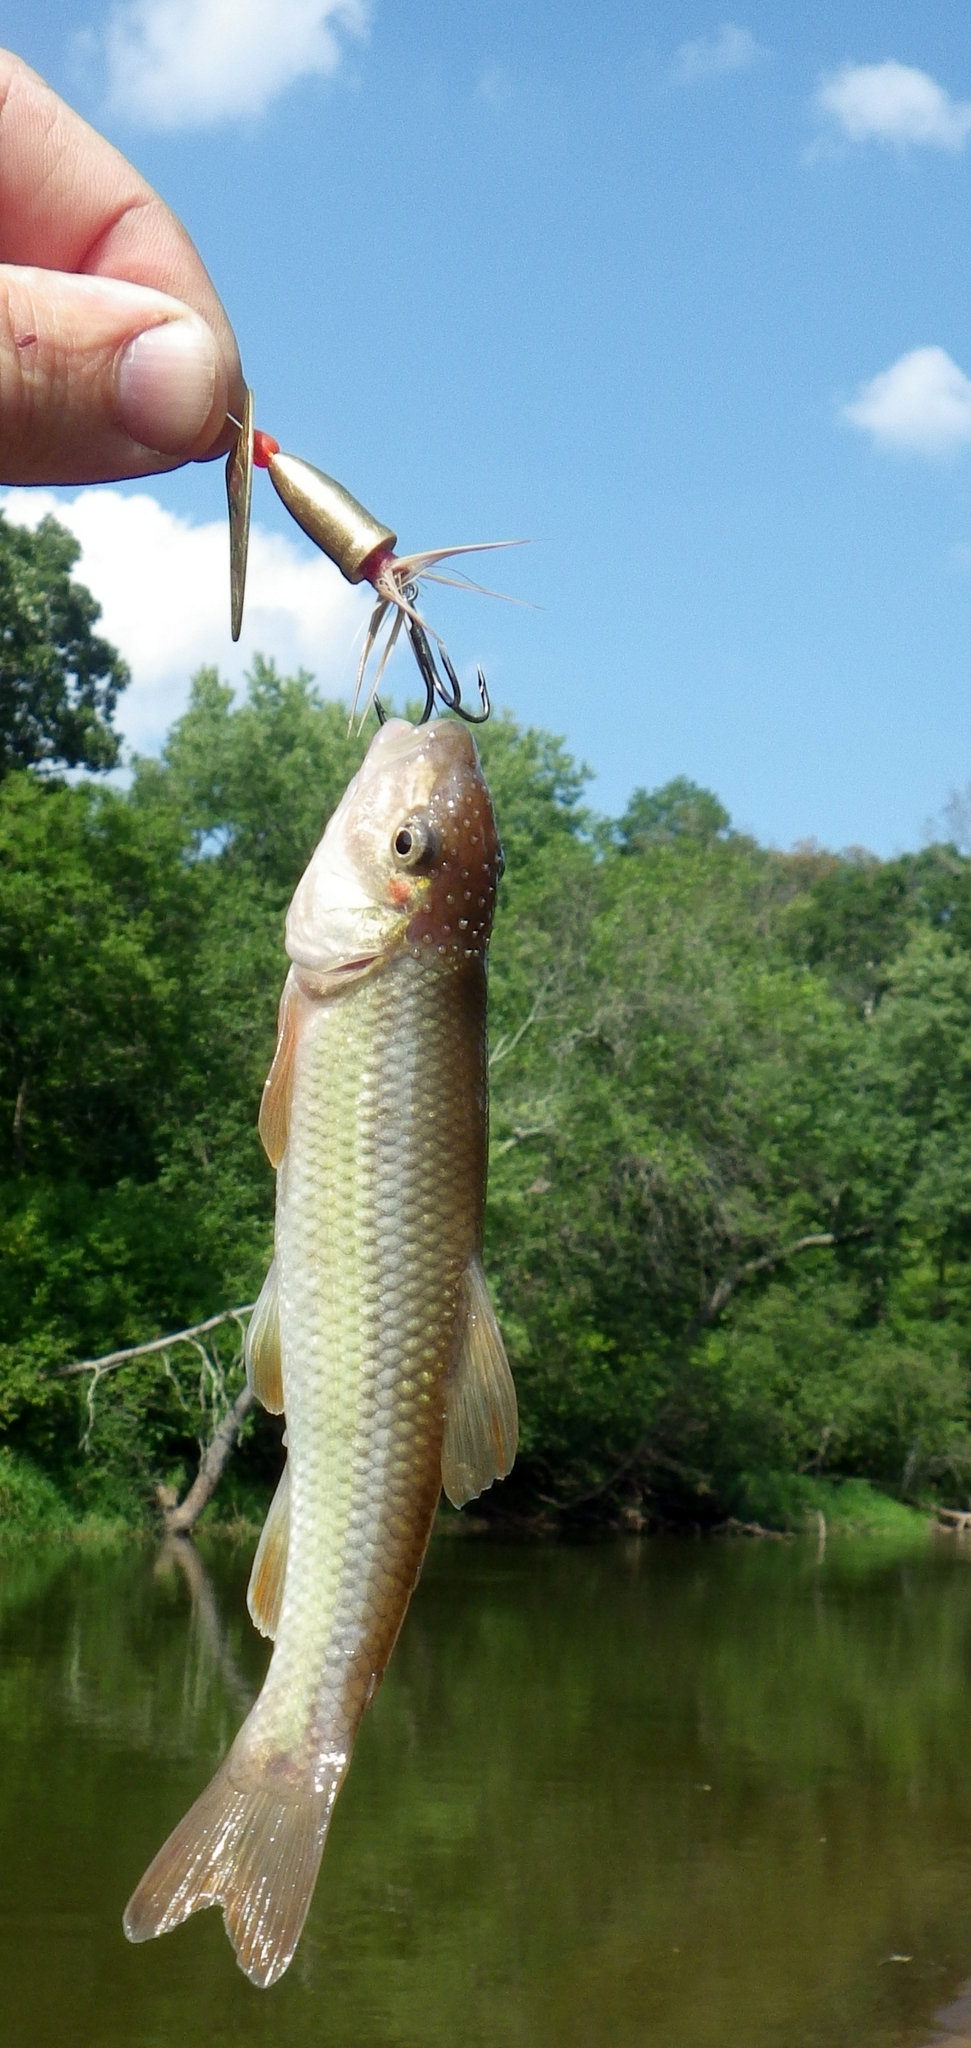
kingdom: Animalia
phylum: Chordata
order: Cypriniformes
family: Cyprinidae
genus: Nocomis
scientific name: Nocomis biguttatus
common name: Hornyhead chub
